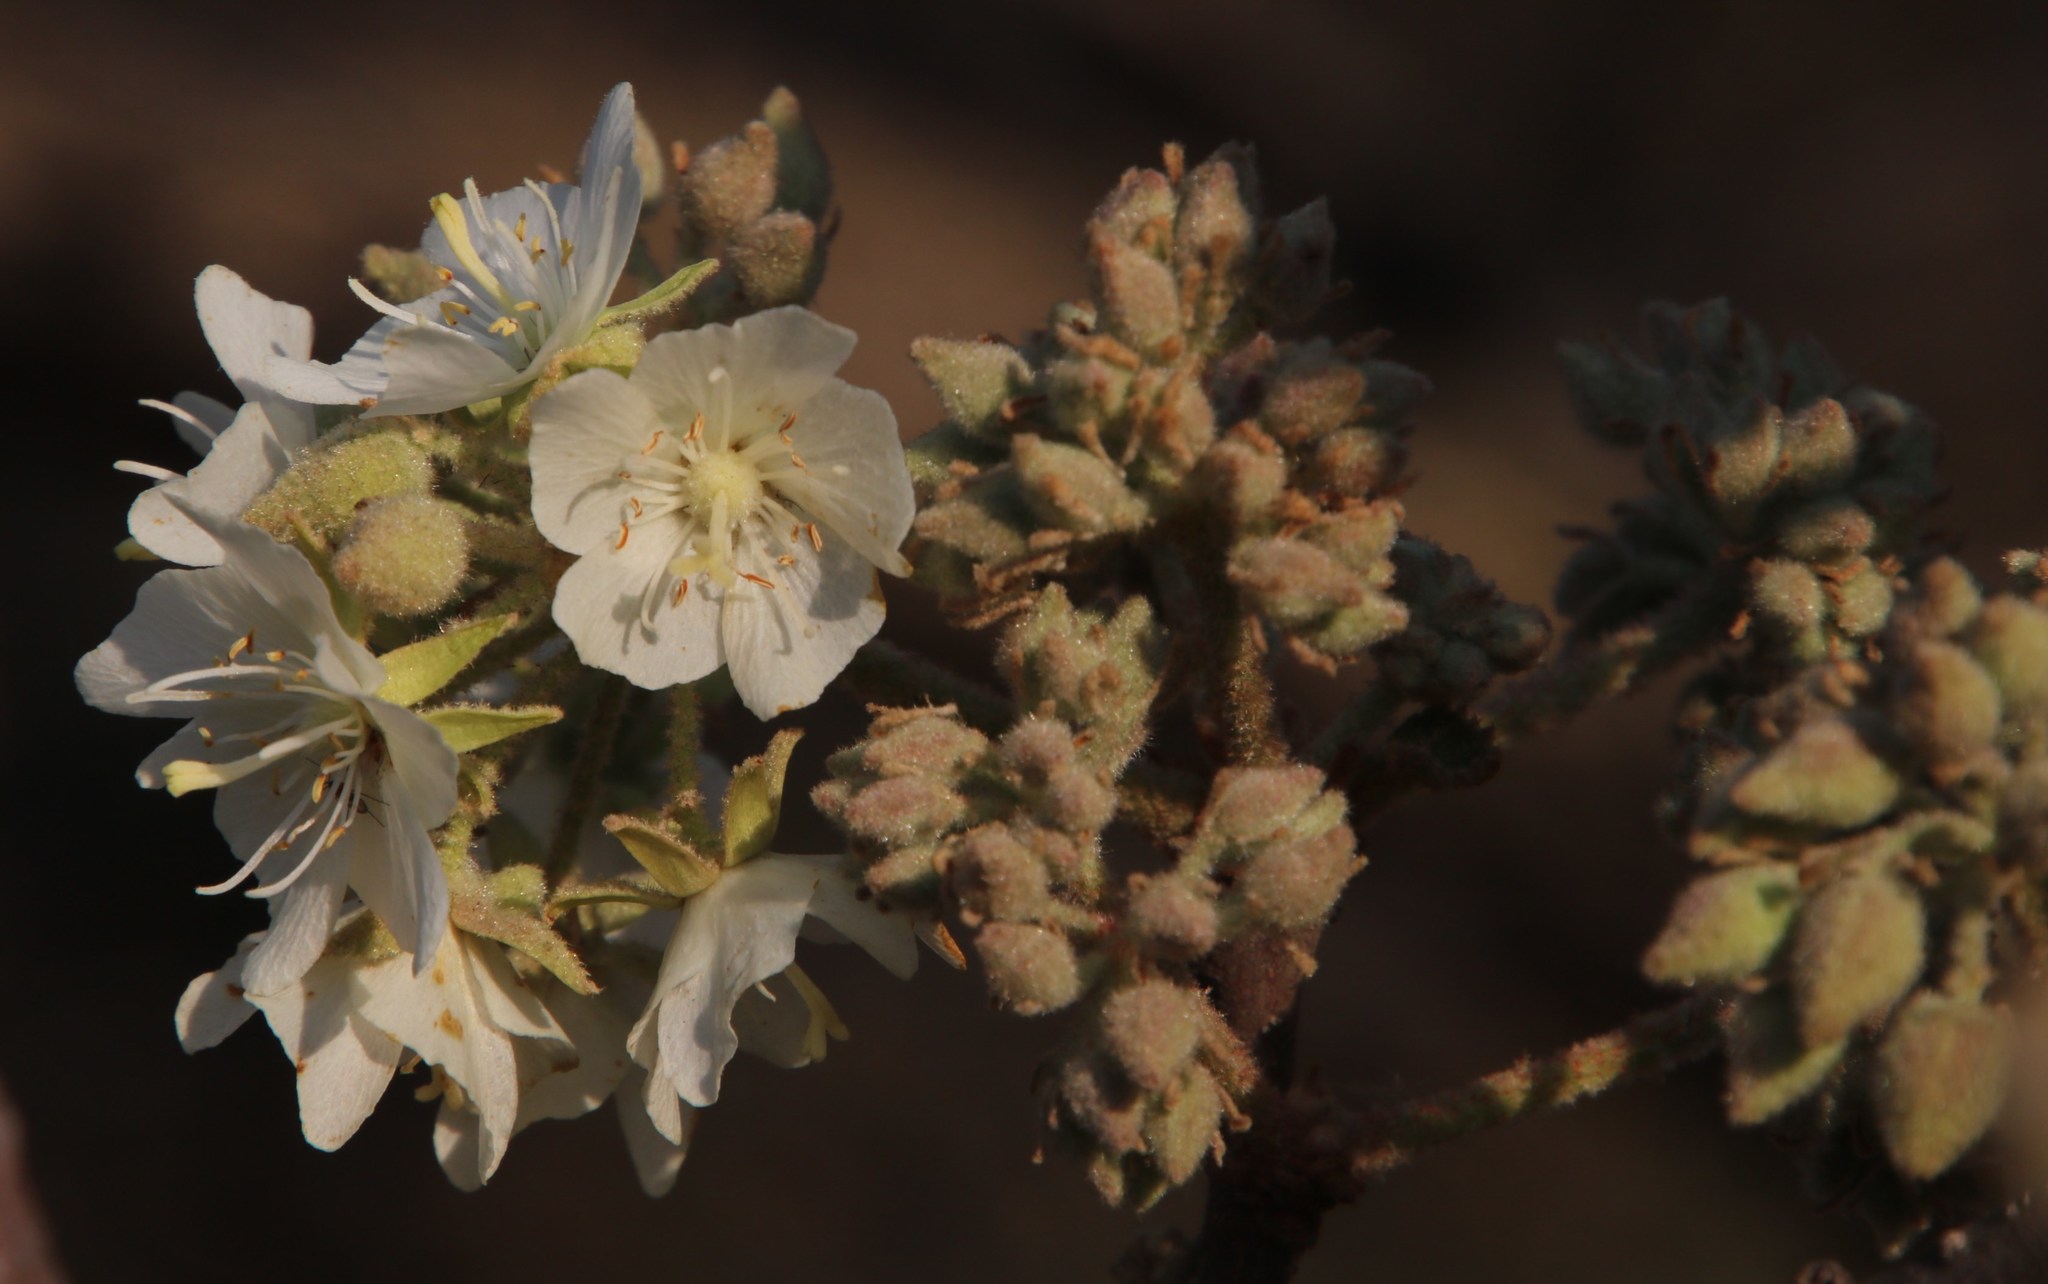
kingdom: Plantae
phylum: Tracheophyta
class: Magnoliopsida
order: Malvales
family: Malvaceae
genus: Dombeya
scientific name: Dombeya rotundifolia
